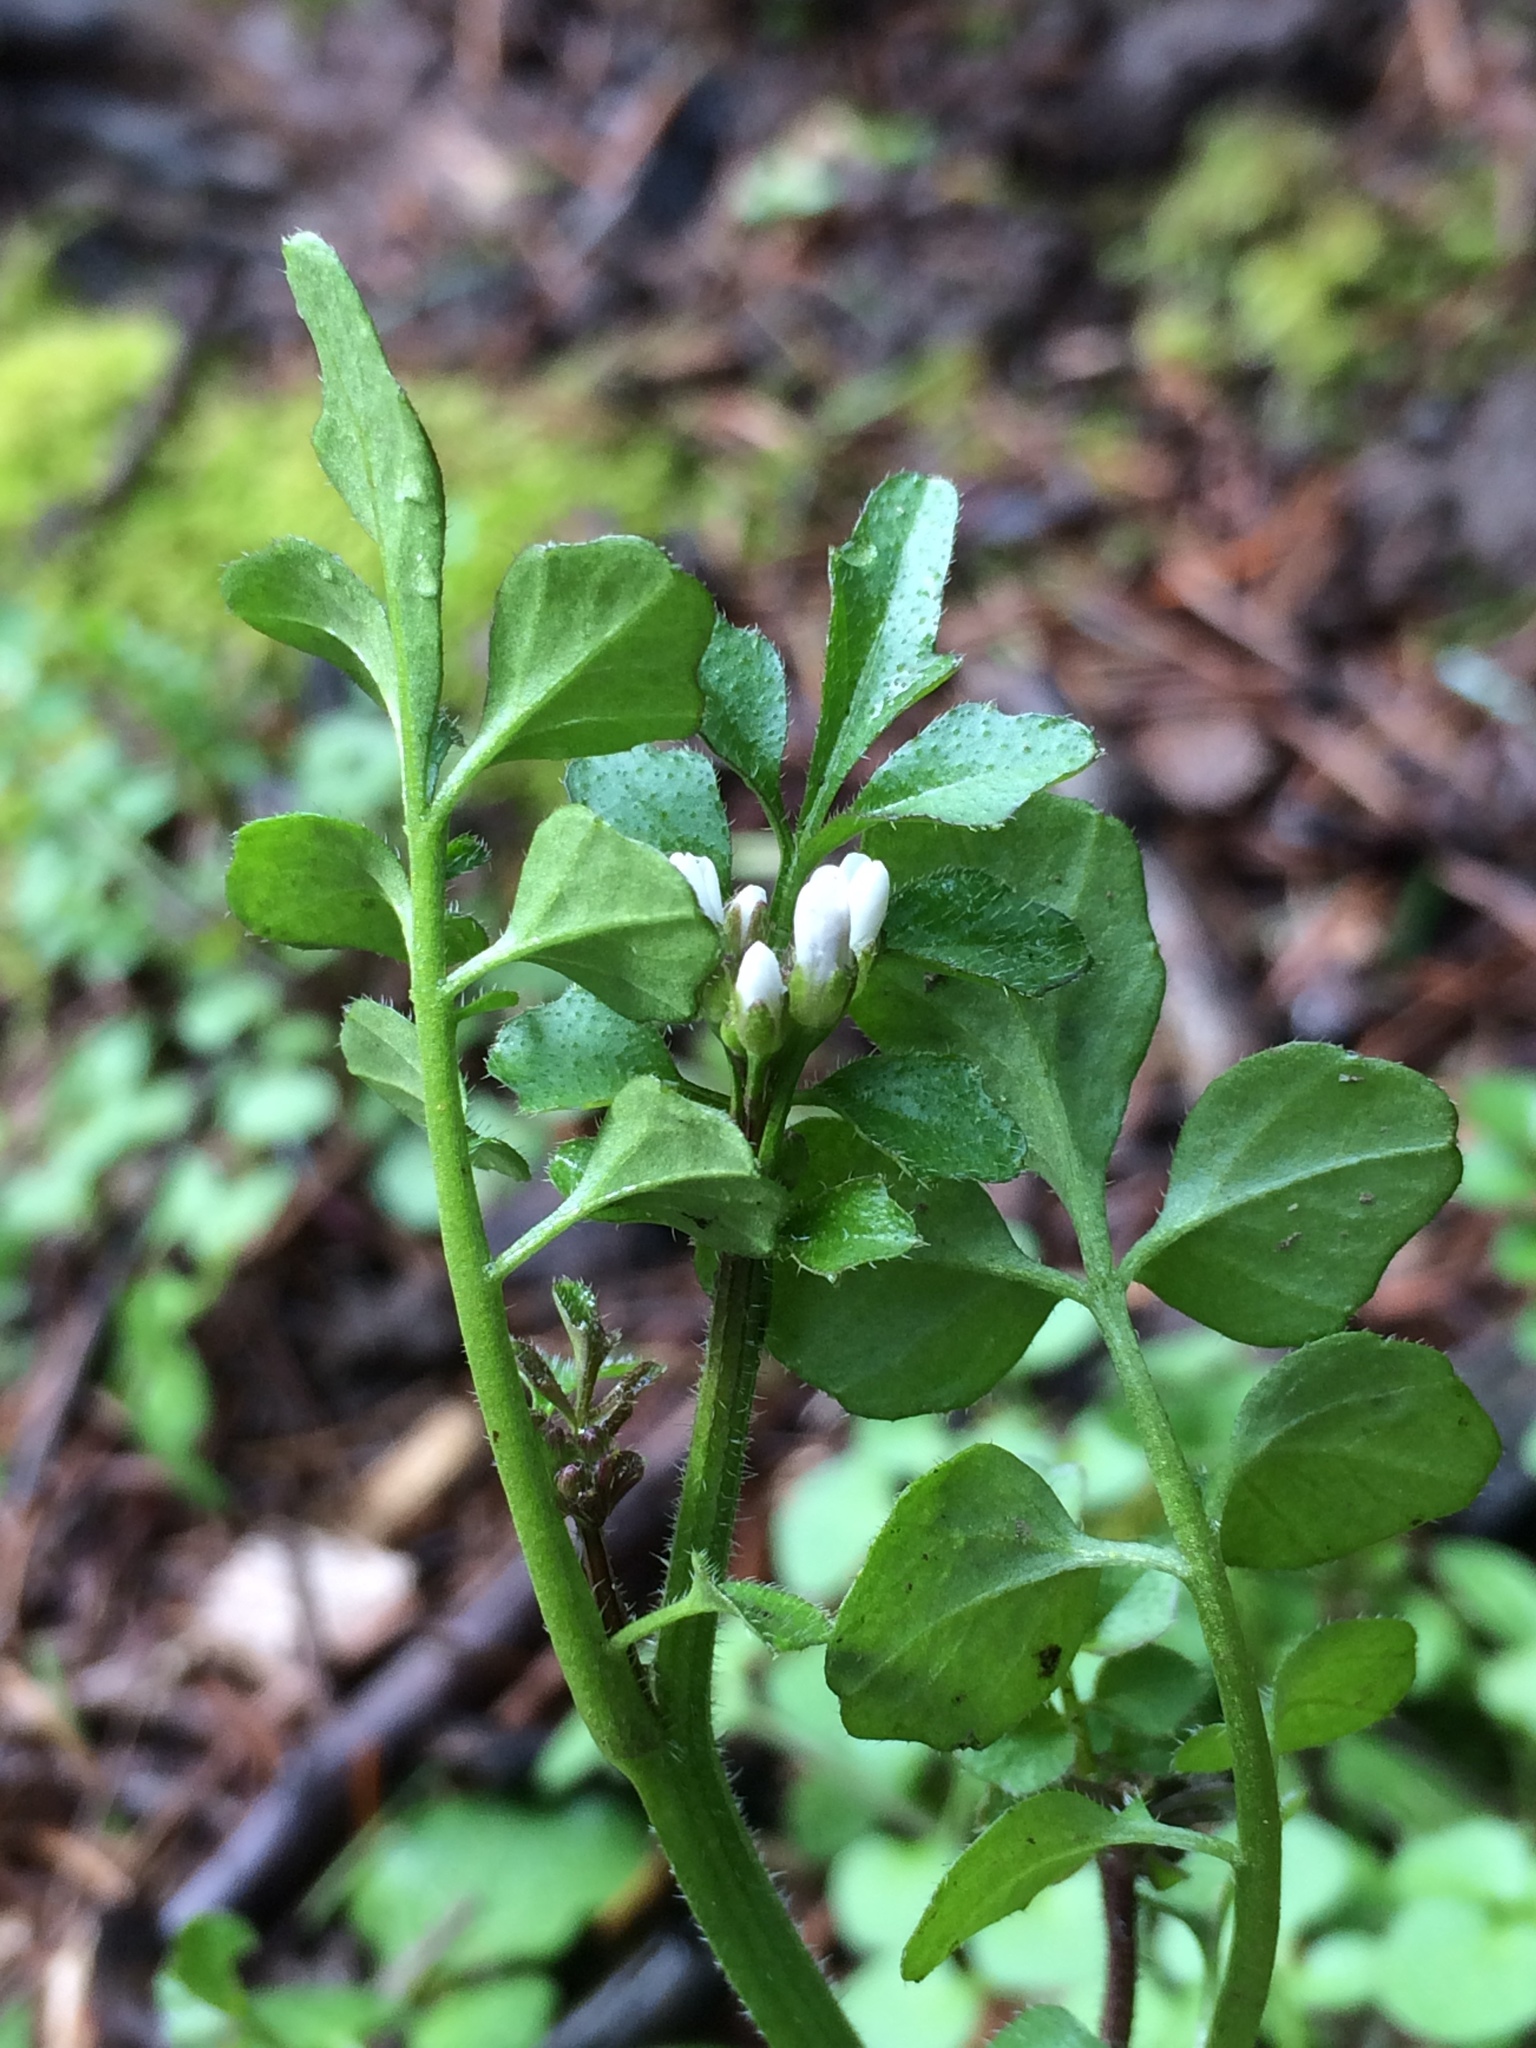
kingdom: Plantae
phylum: Tracheophyta
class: Magnoliopsida
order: Brassicales
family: Brassicaceae
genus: Cardamine
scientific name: Cardamine hirsuta
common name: Hairy bittercress
